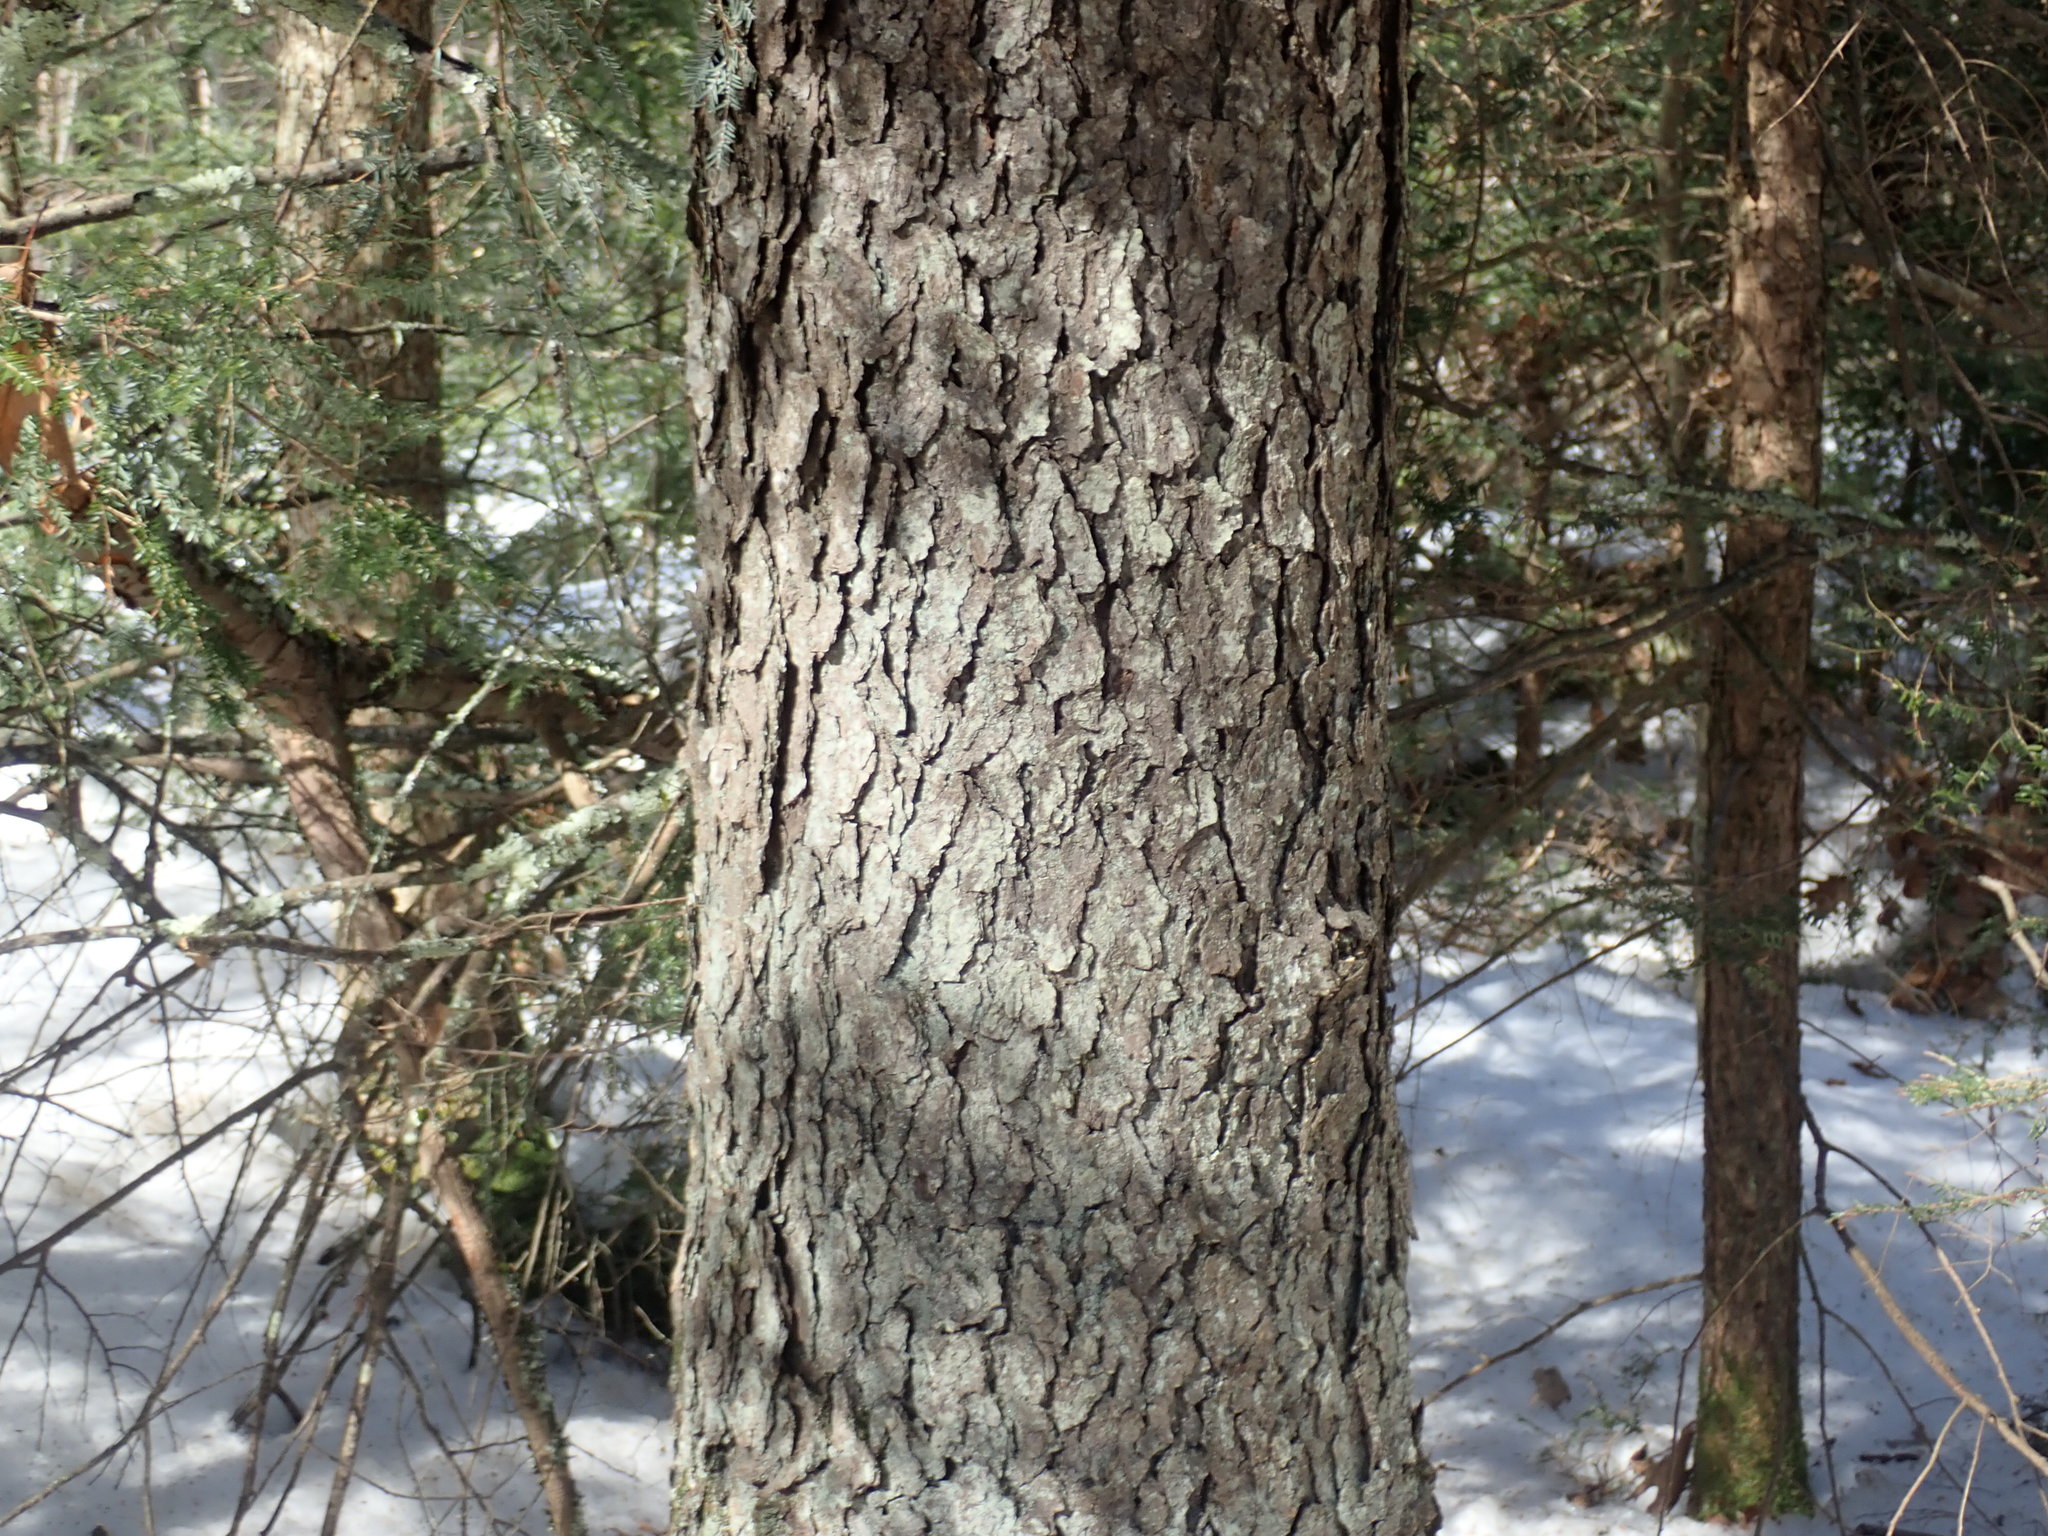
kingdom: Plantae
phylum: Tracheophyta
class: Magnoliopsida
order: Rosales
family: Rosaceae
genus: Prunus
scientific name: Prunus serotina
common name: Black cherry
